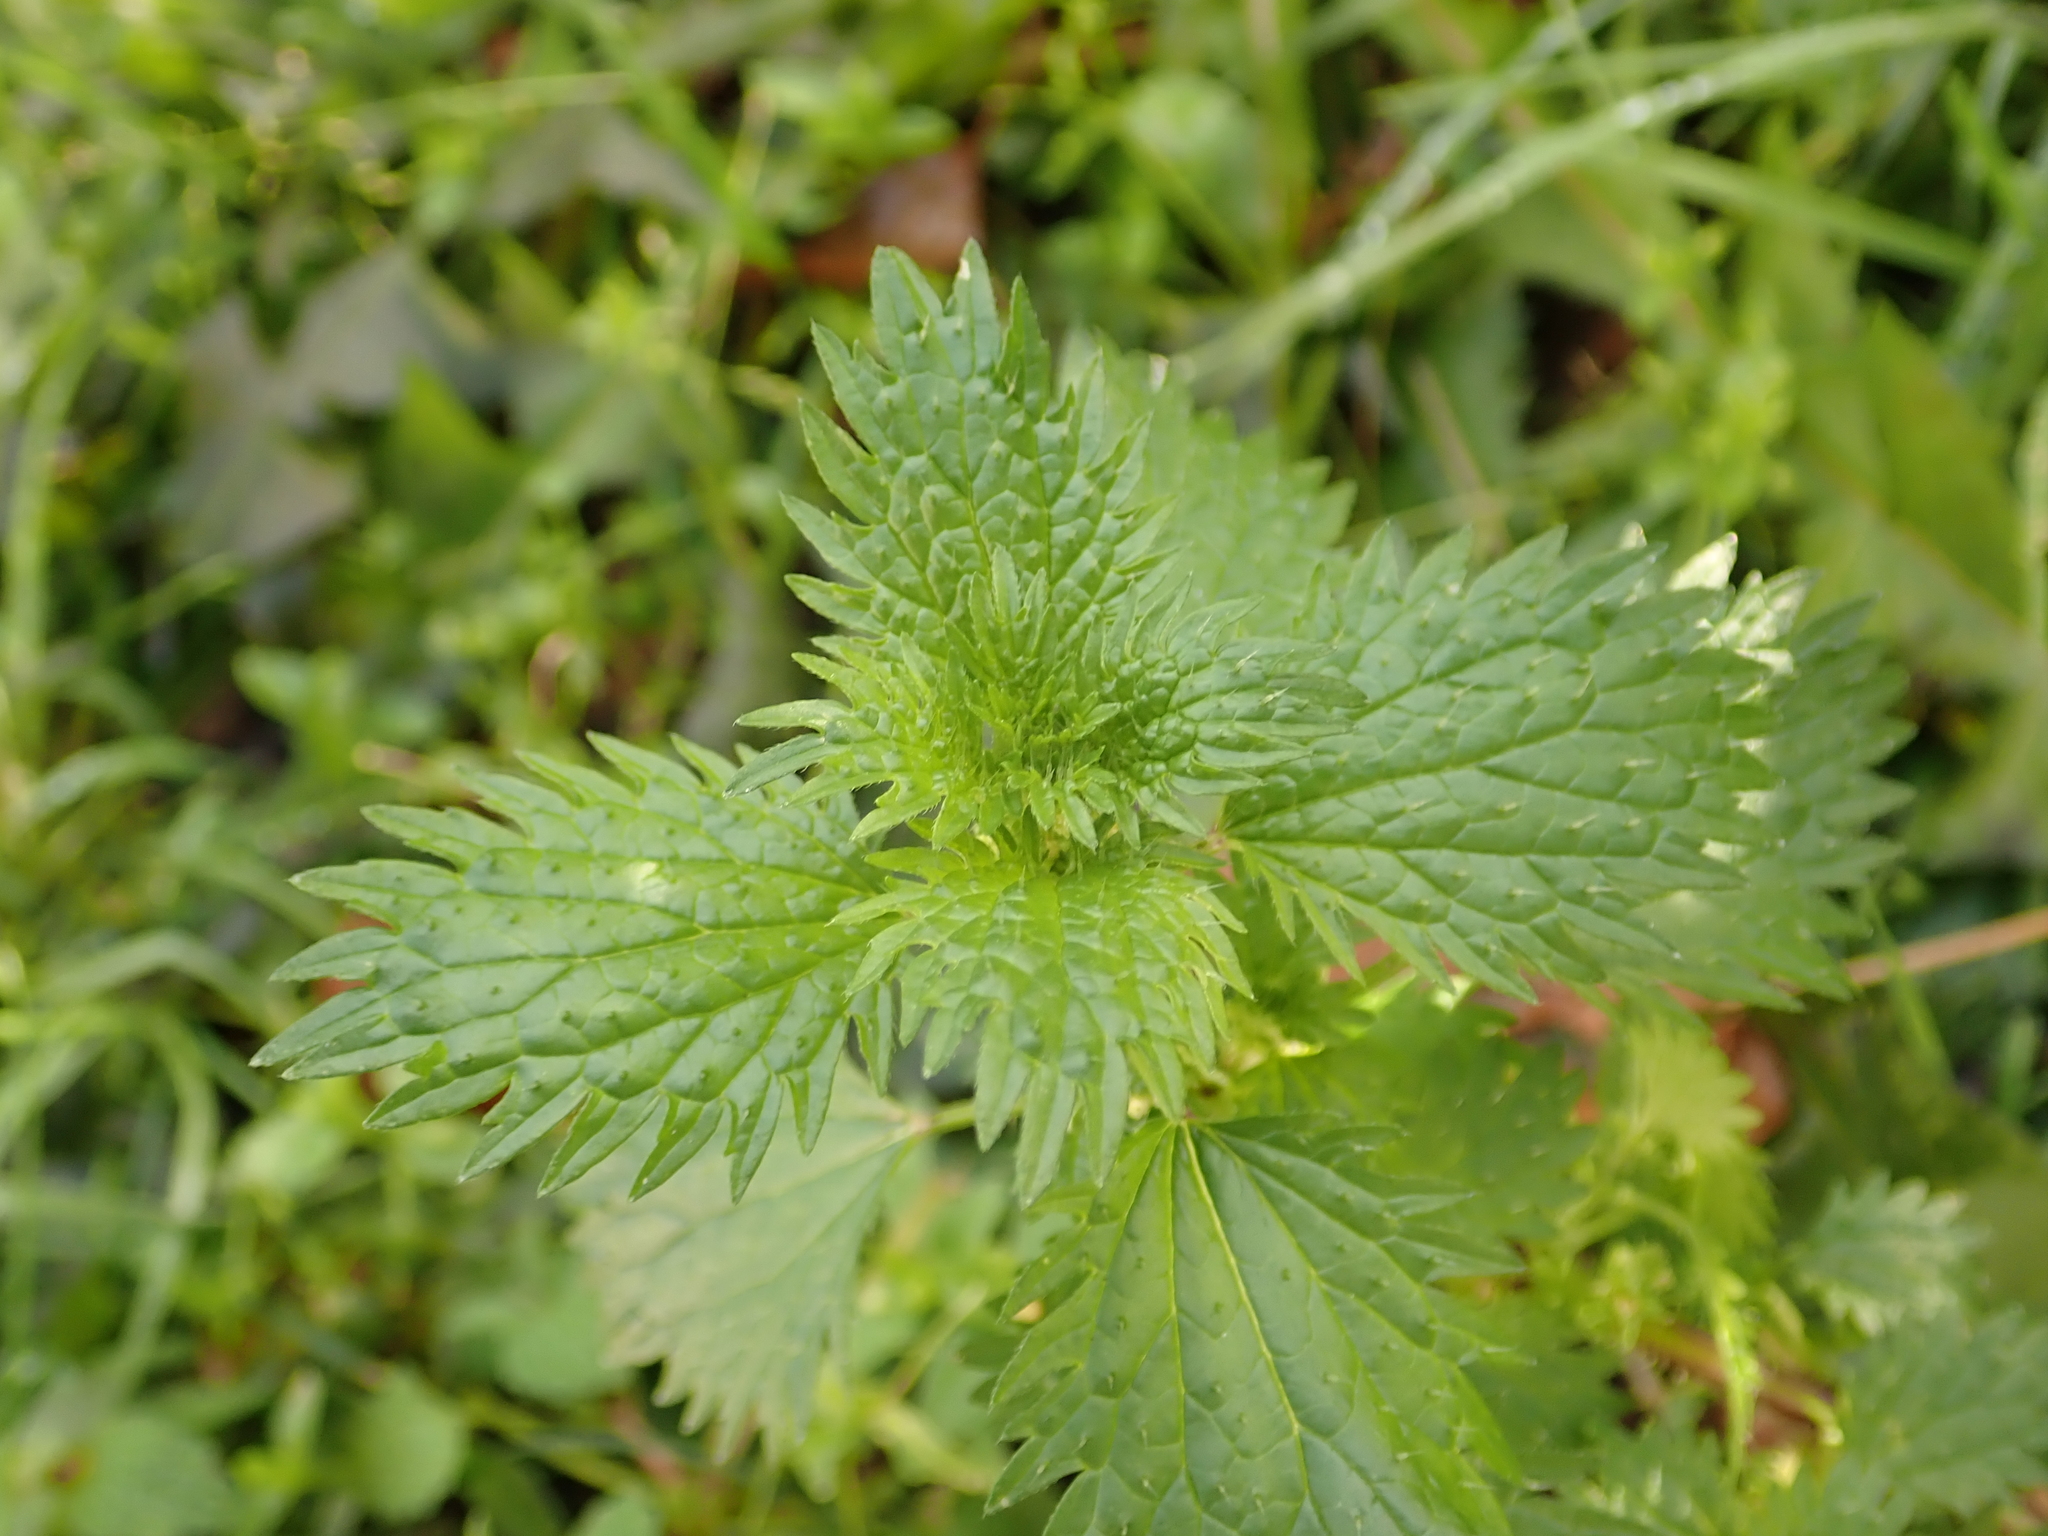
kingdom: Plantae
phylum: Tracheophyta
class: Magnoliopsida
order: Rosales
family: Urticaceae
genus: Urtica
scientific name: Urtica urens
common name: Dwarf nettle
